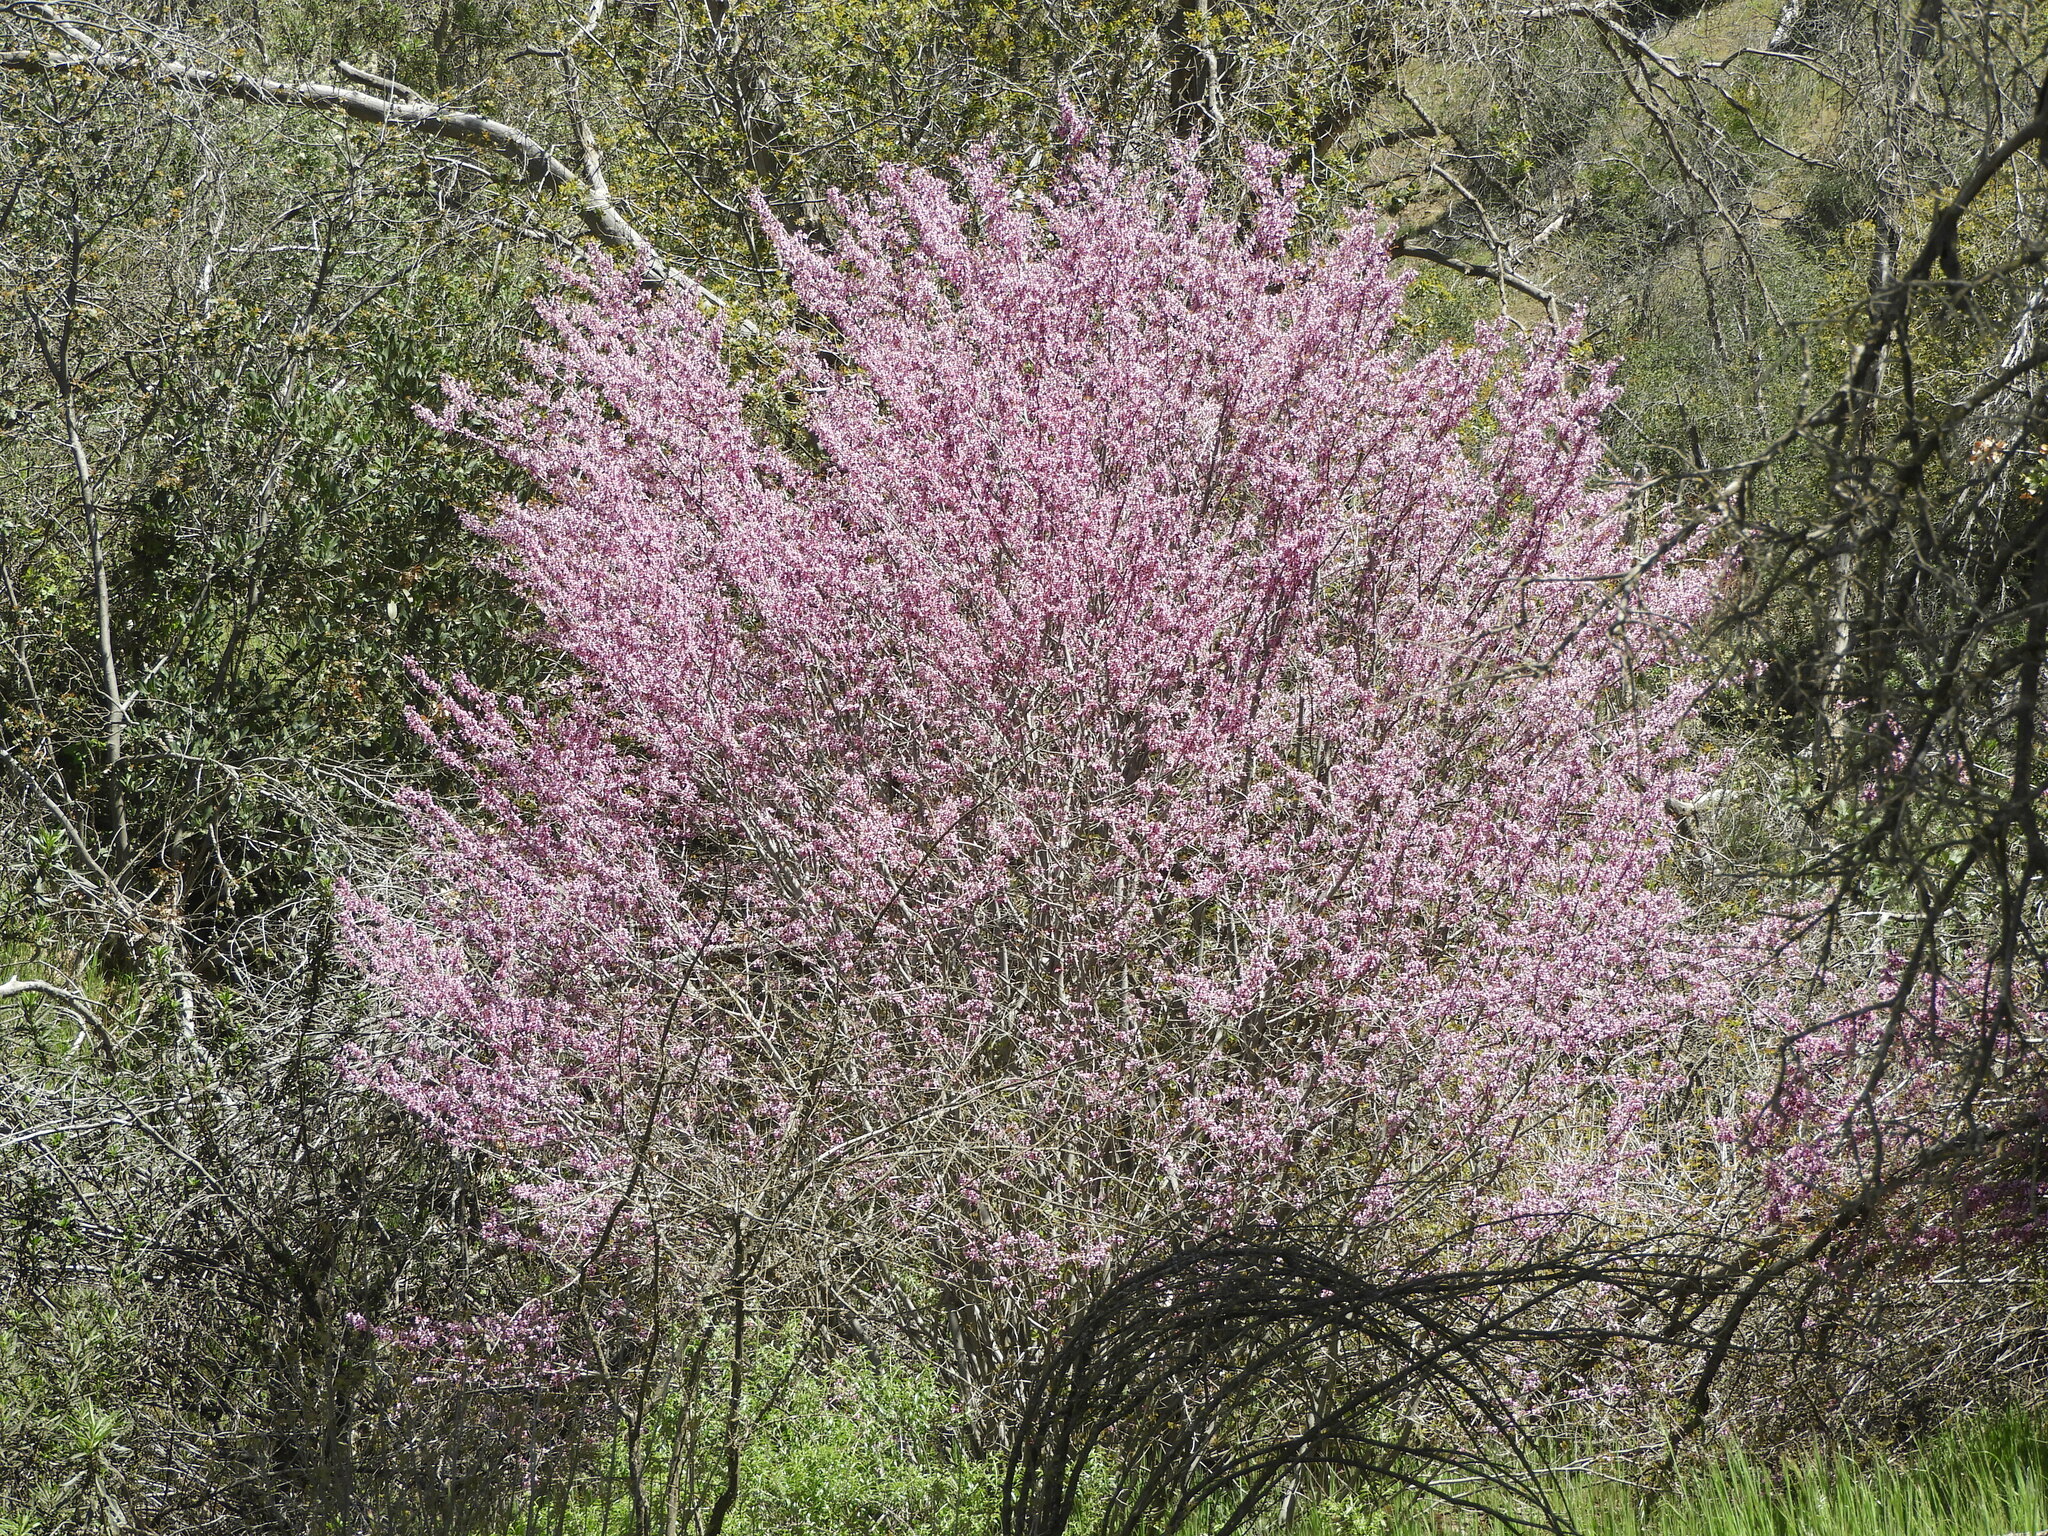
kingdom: Plantae
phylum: Tracheophyta
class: Magnoliopsida
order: Fabales
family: Fabaceae
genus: Cercis
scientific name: Cercis occidentalis
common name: California redbud
